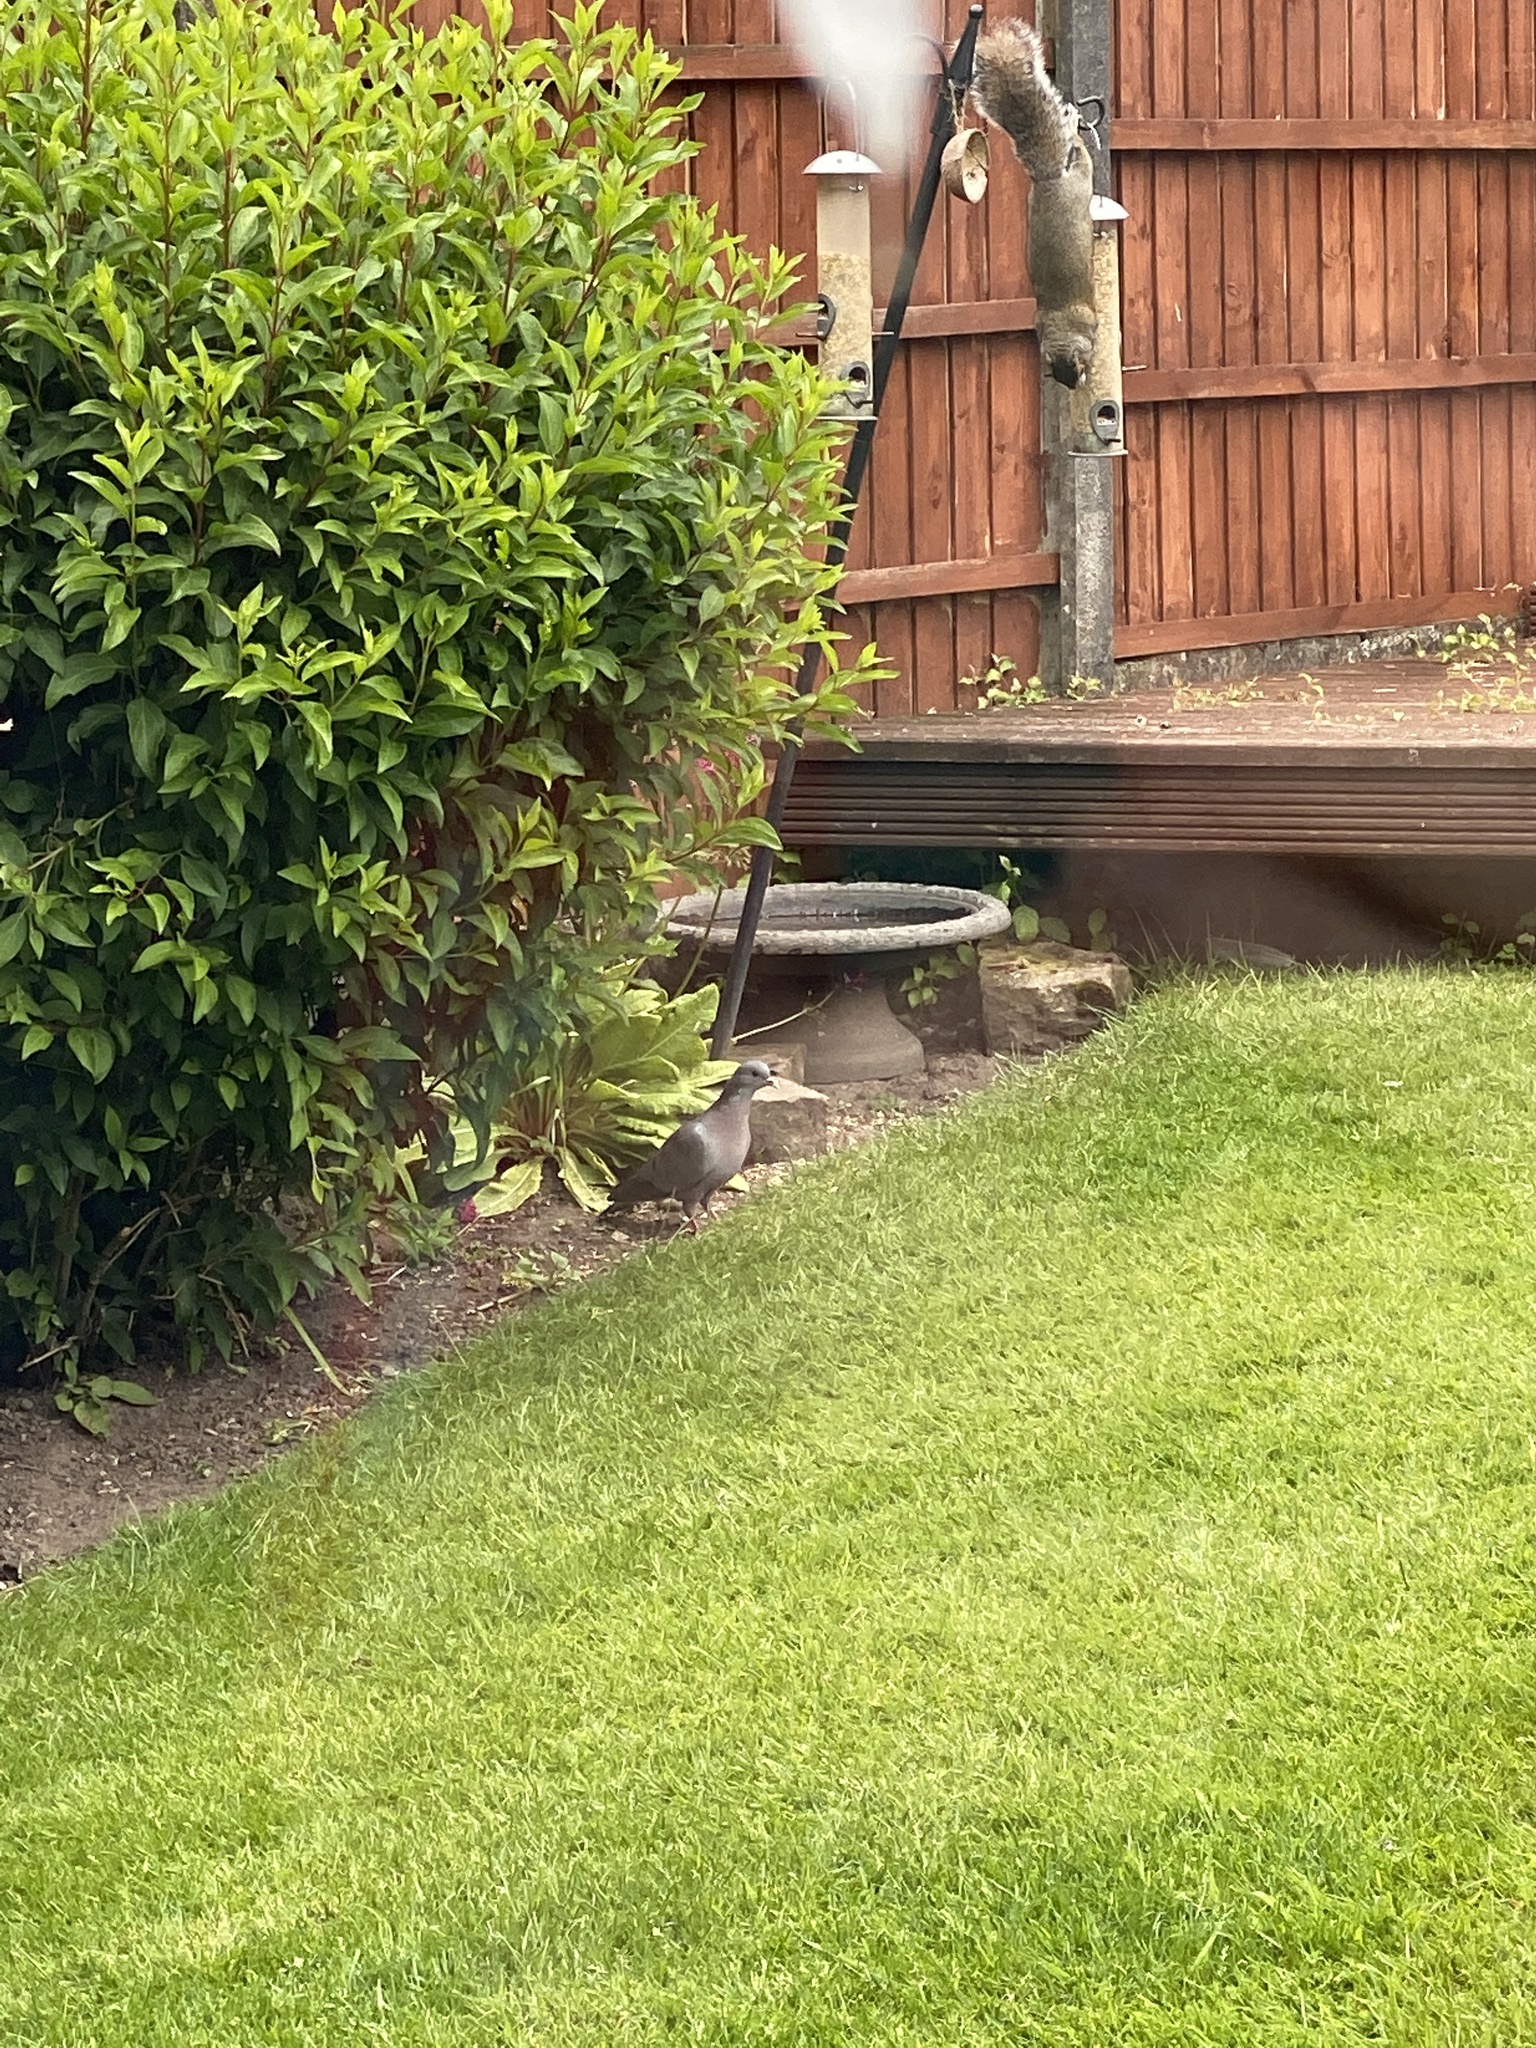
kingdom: Animalia
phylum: Chordata
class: Aves
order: Columbiformes
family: Columbidae
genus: Columba
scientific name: Columba oenas
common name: Stock dove
